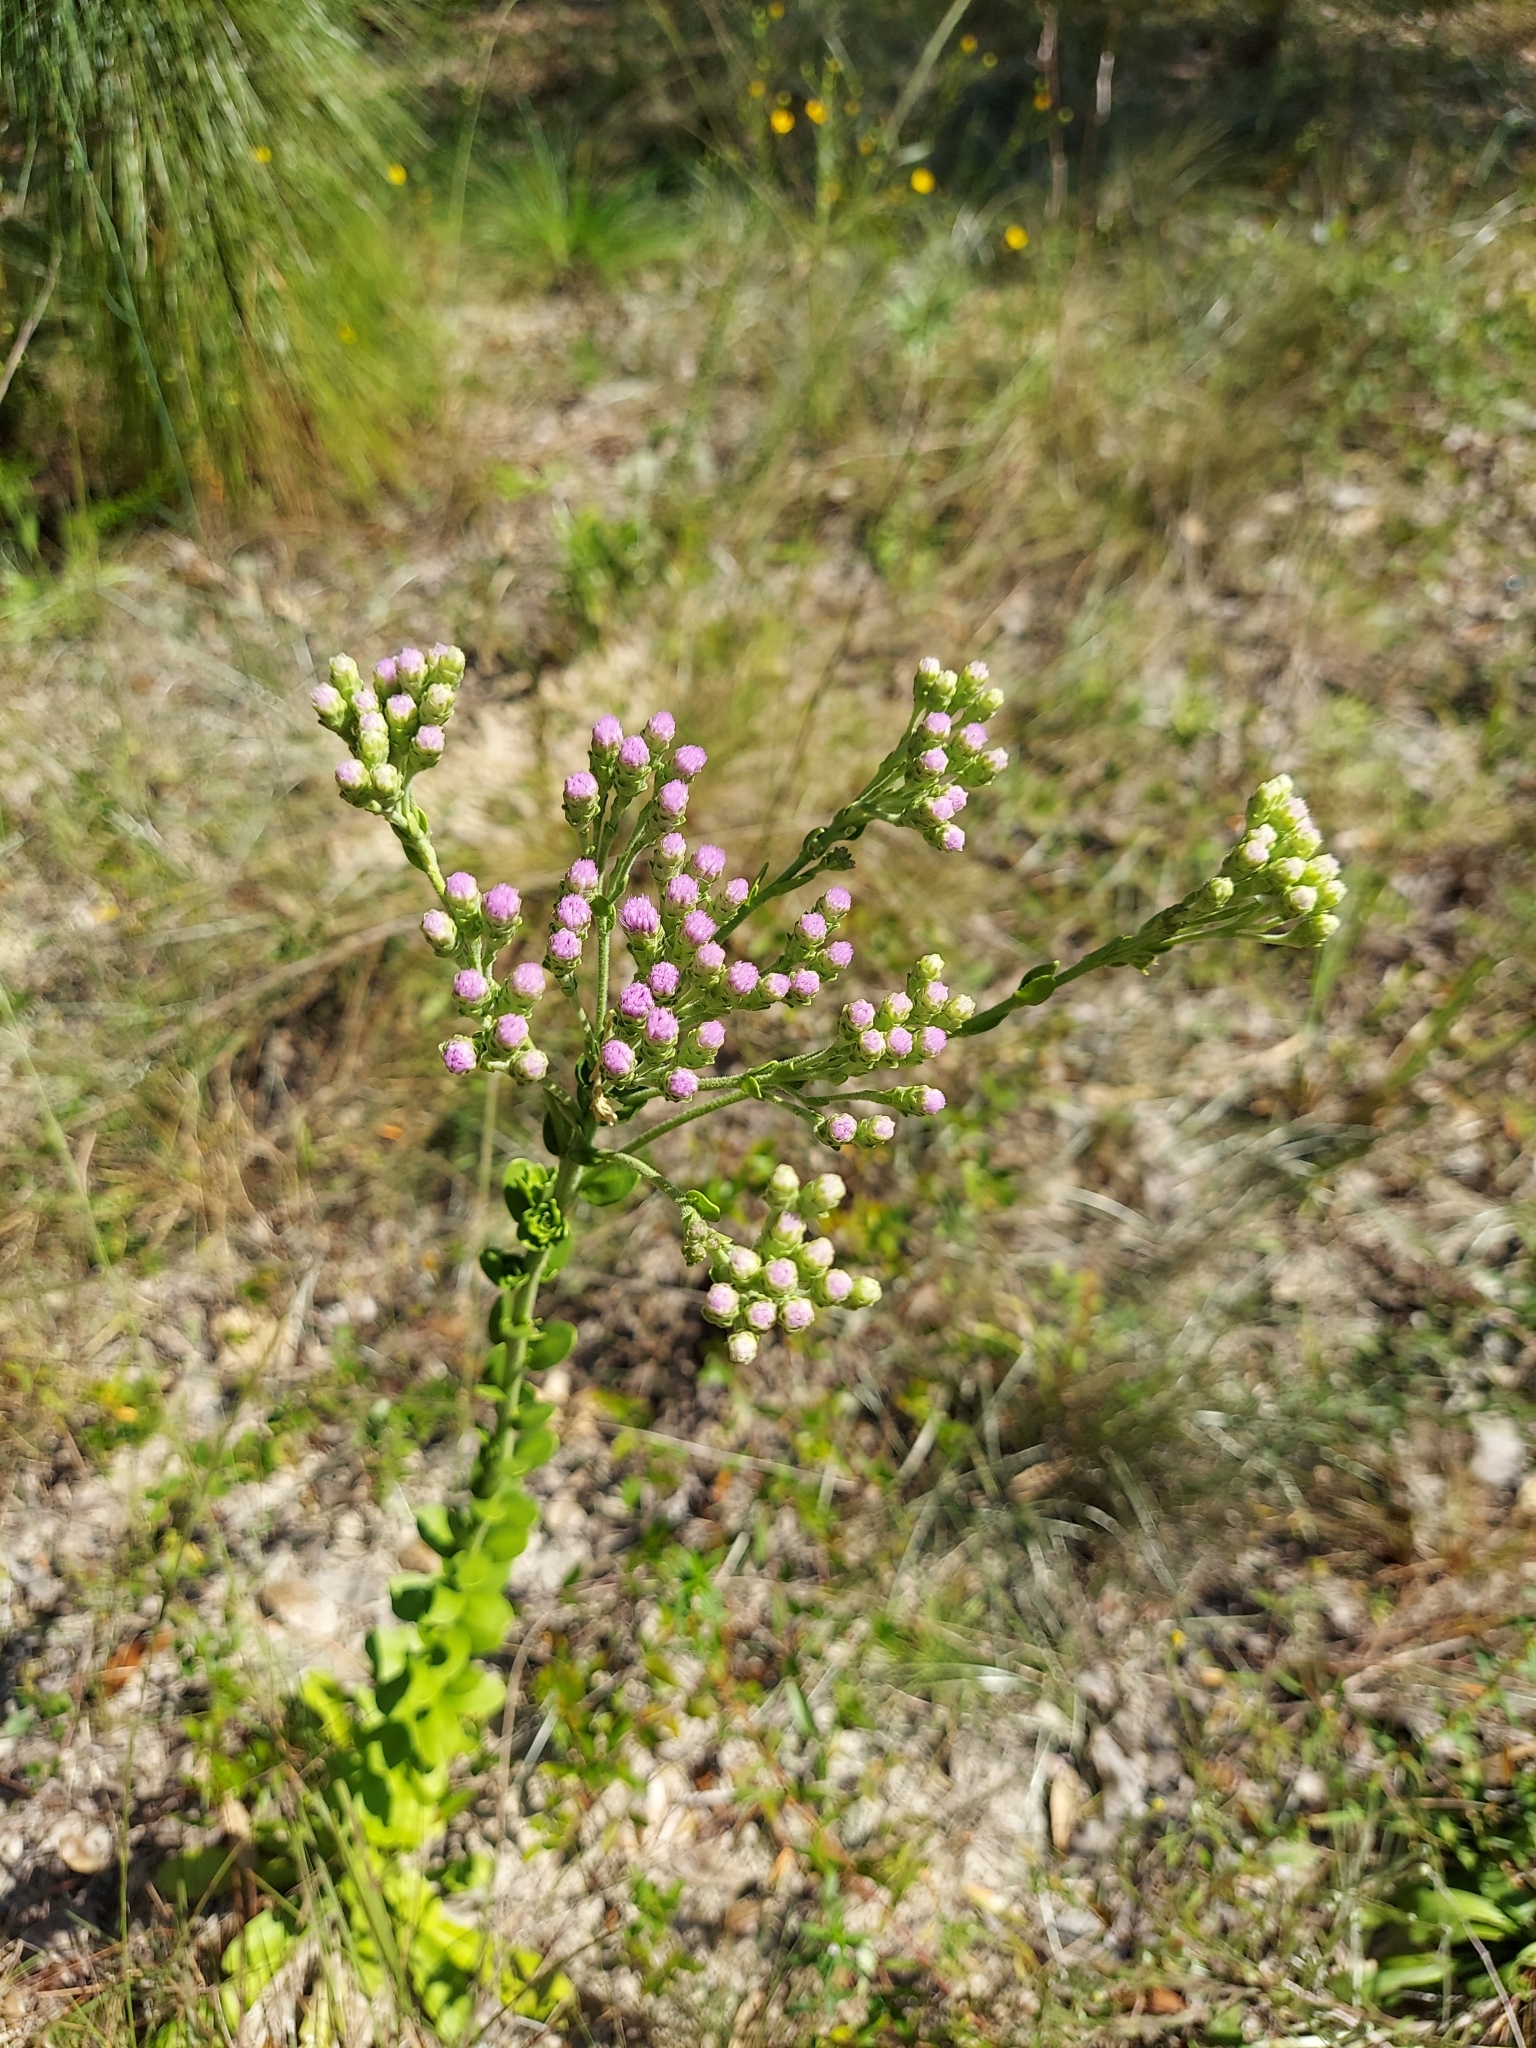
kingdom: Plantae
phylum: Tracheophyta
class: Magnoliopsida
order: Asterales
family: Asteraceae
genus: Carphephorus
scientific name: Carphephorus corymbosus
